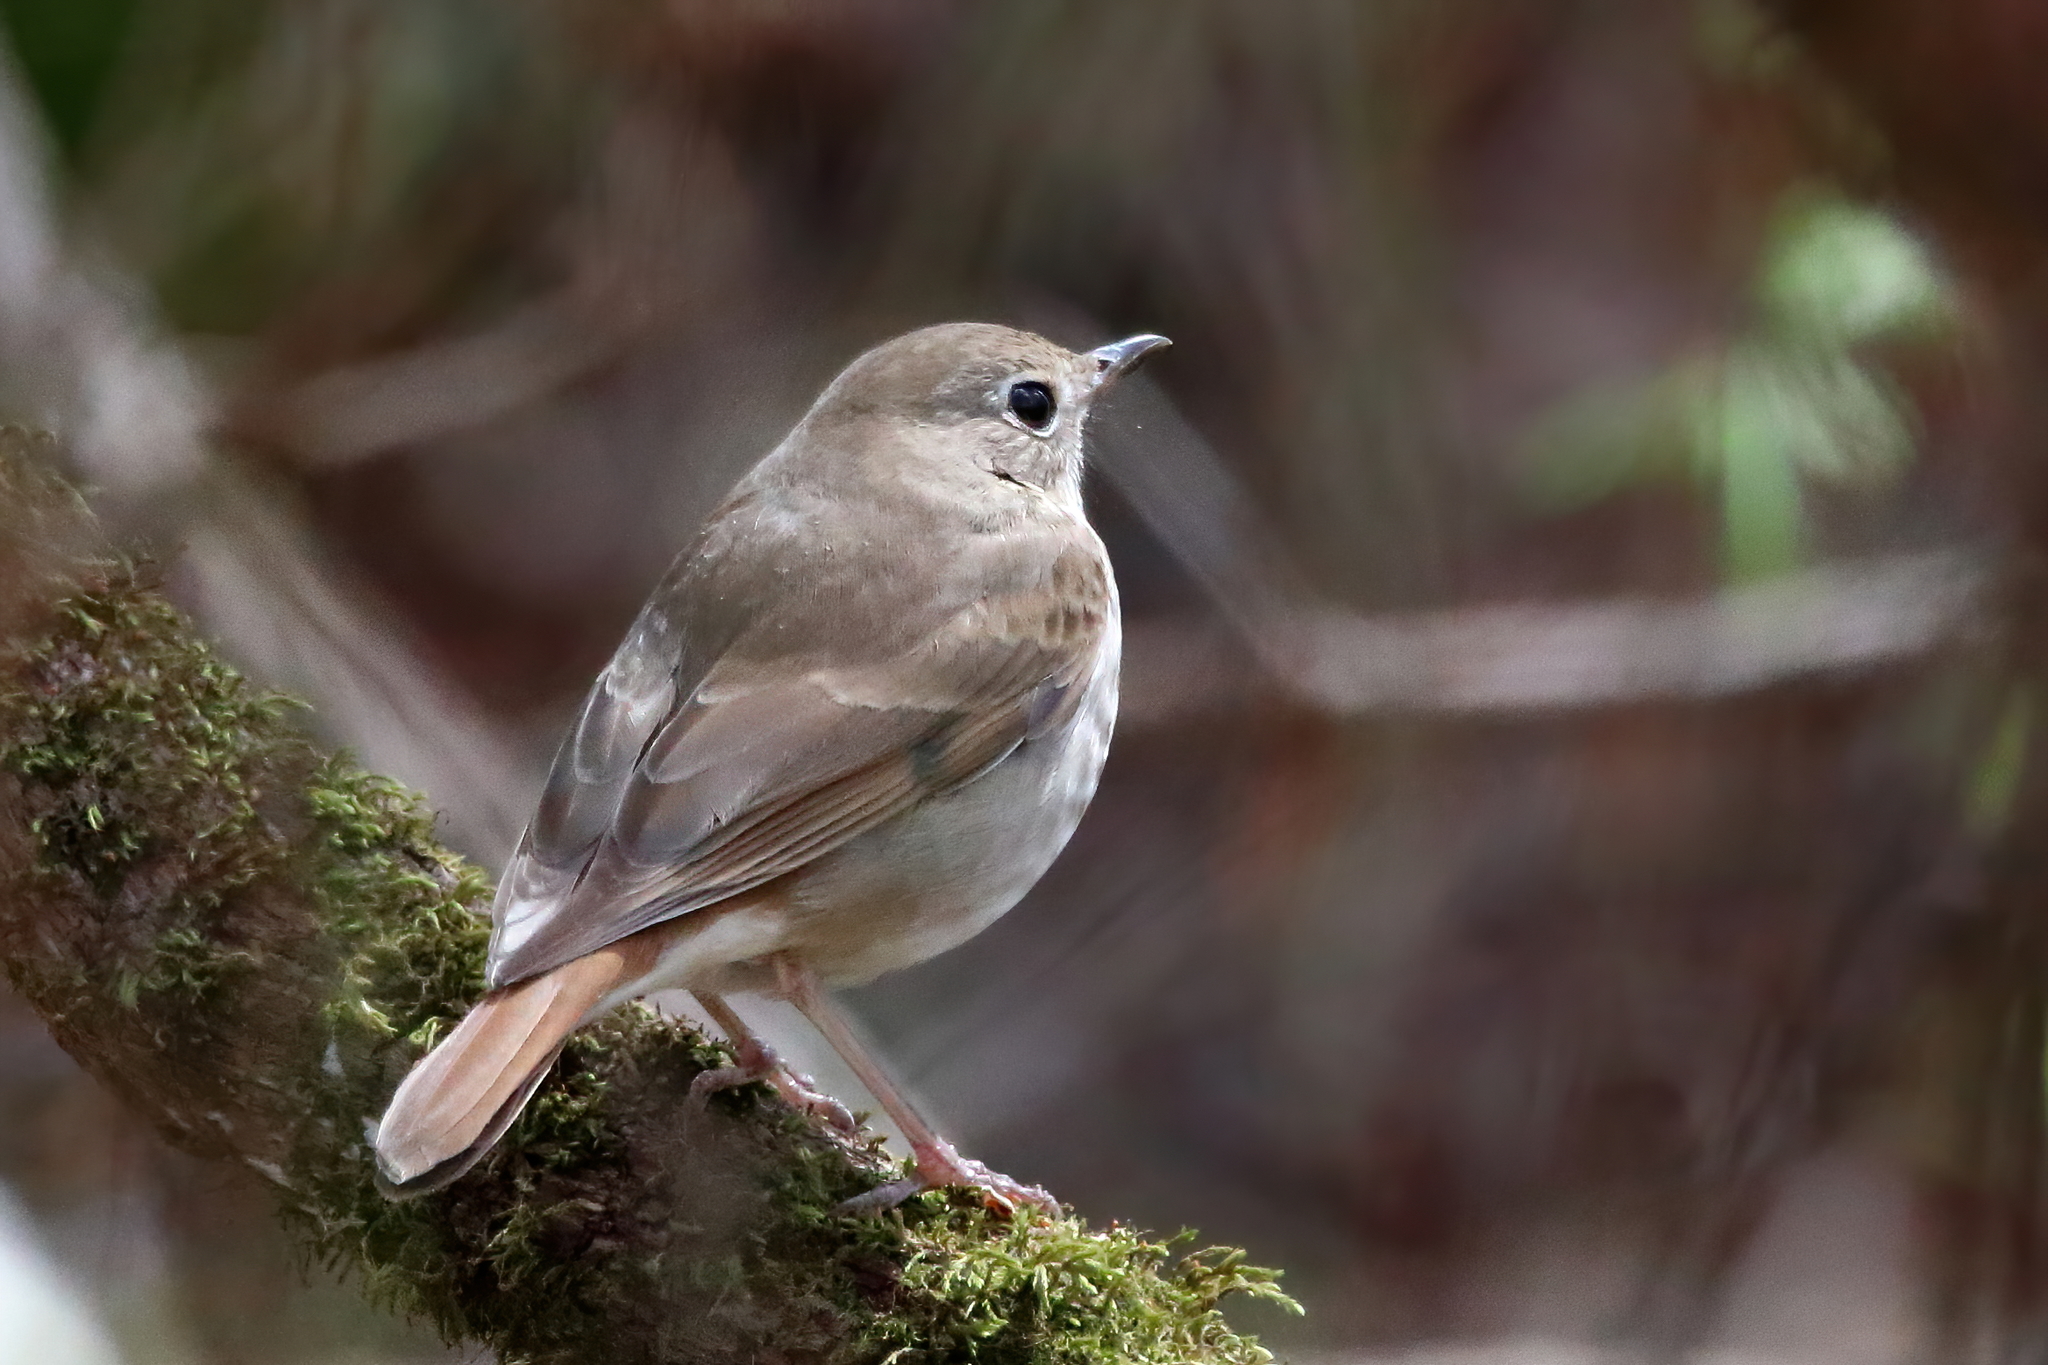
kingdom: Animalia
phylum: Chordata
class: Aves
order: Passeriformes
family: Turdidae
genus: Catharus
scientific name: Catharus guttatus
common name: Hermit thrush
